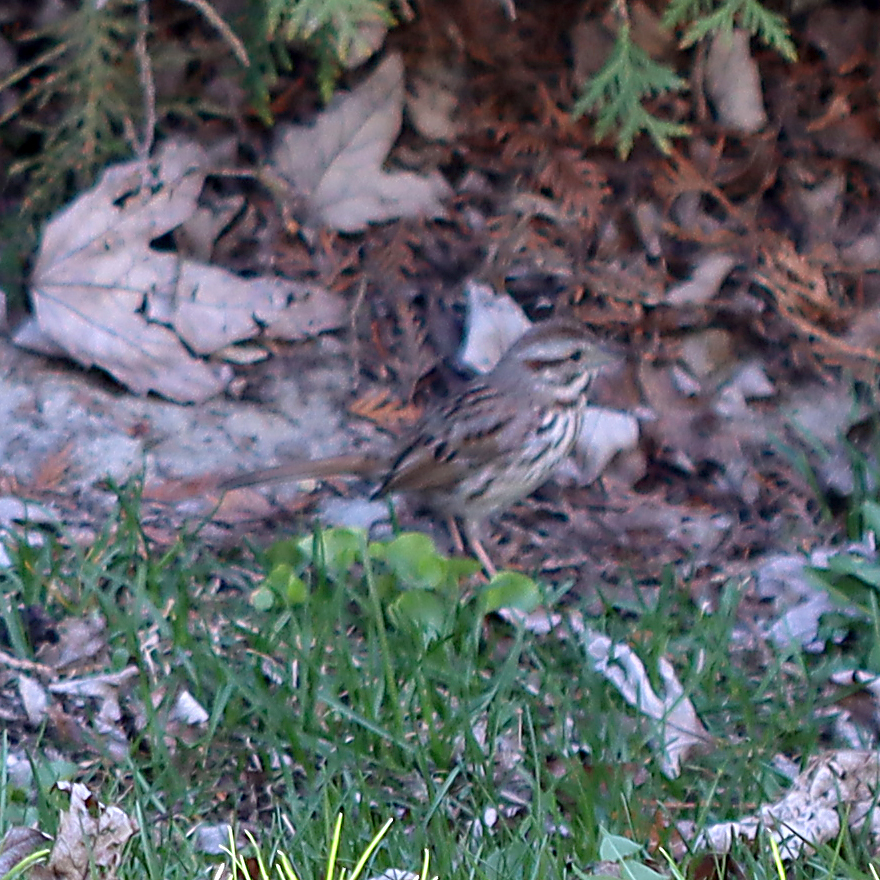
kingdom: Animalia
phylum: Chordata
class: Aves
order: Passeriformes
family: Passerellidae
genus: Melospiza
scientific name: Melospiza melodia
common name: Song sparrow
